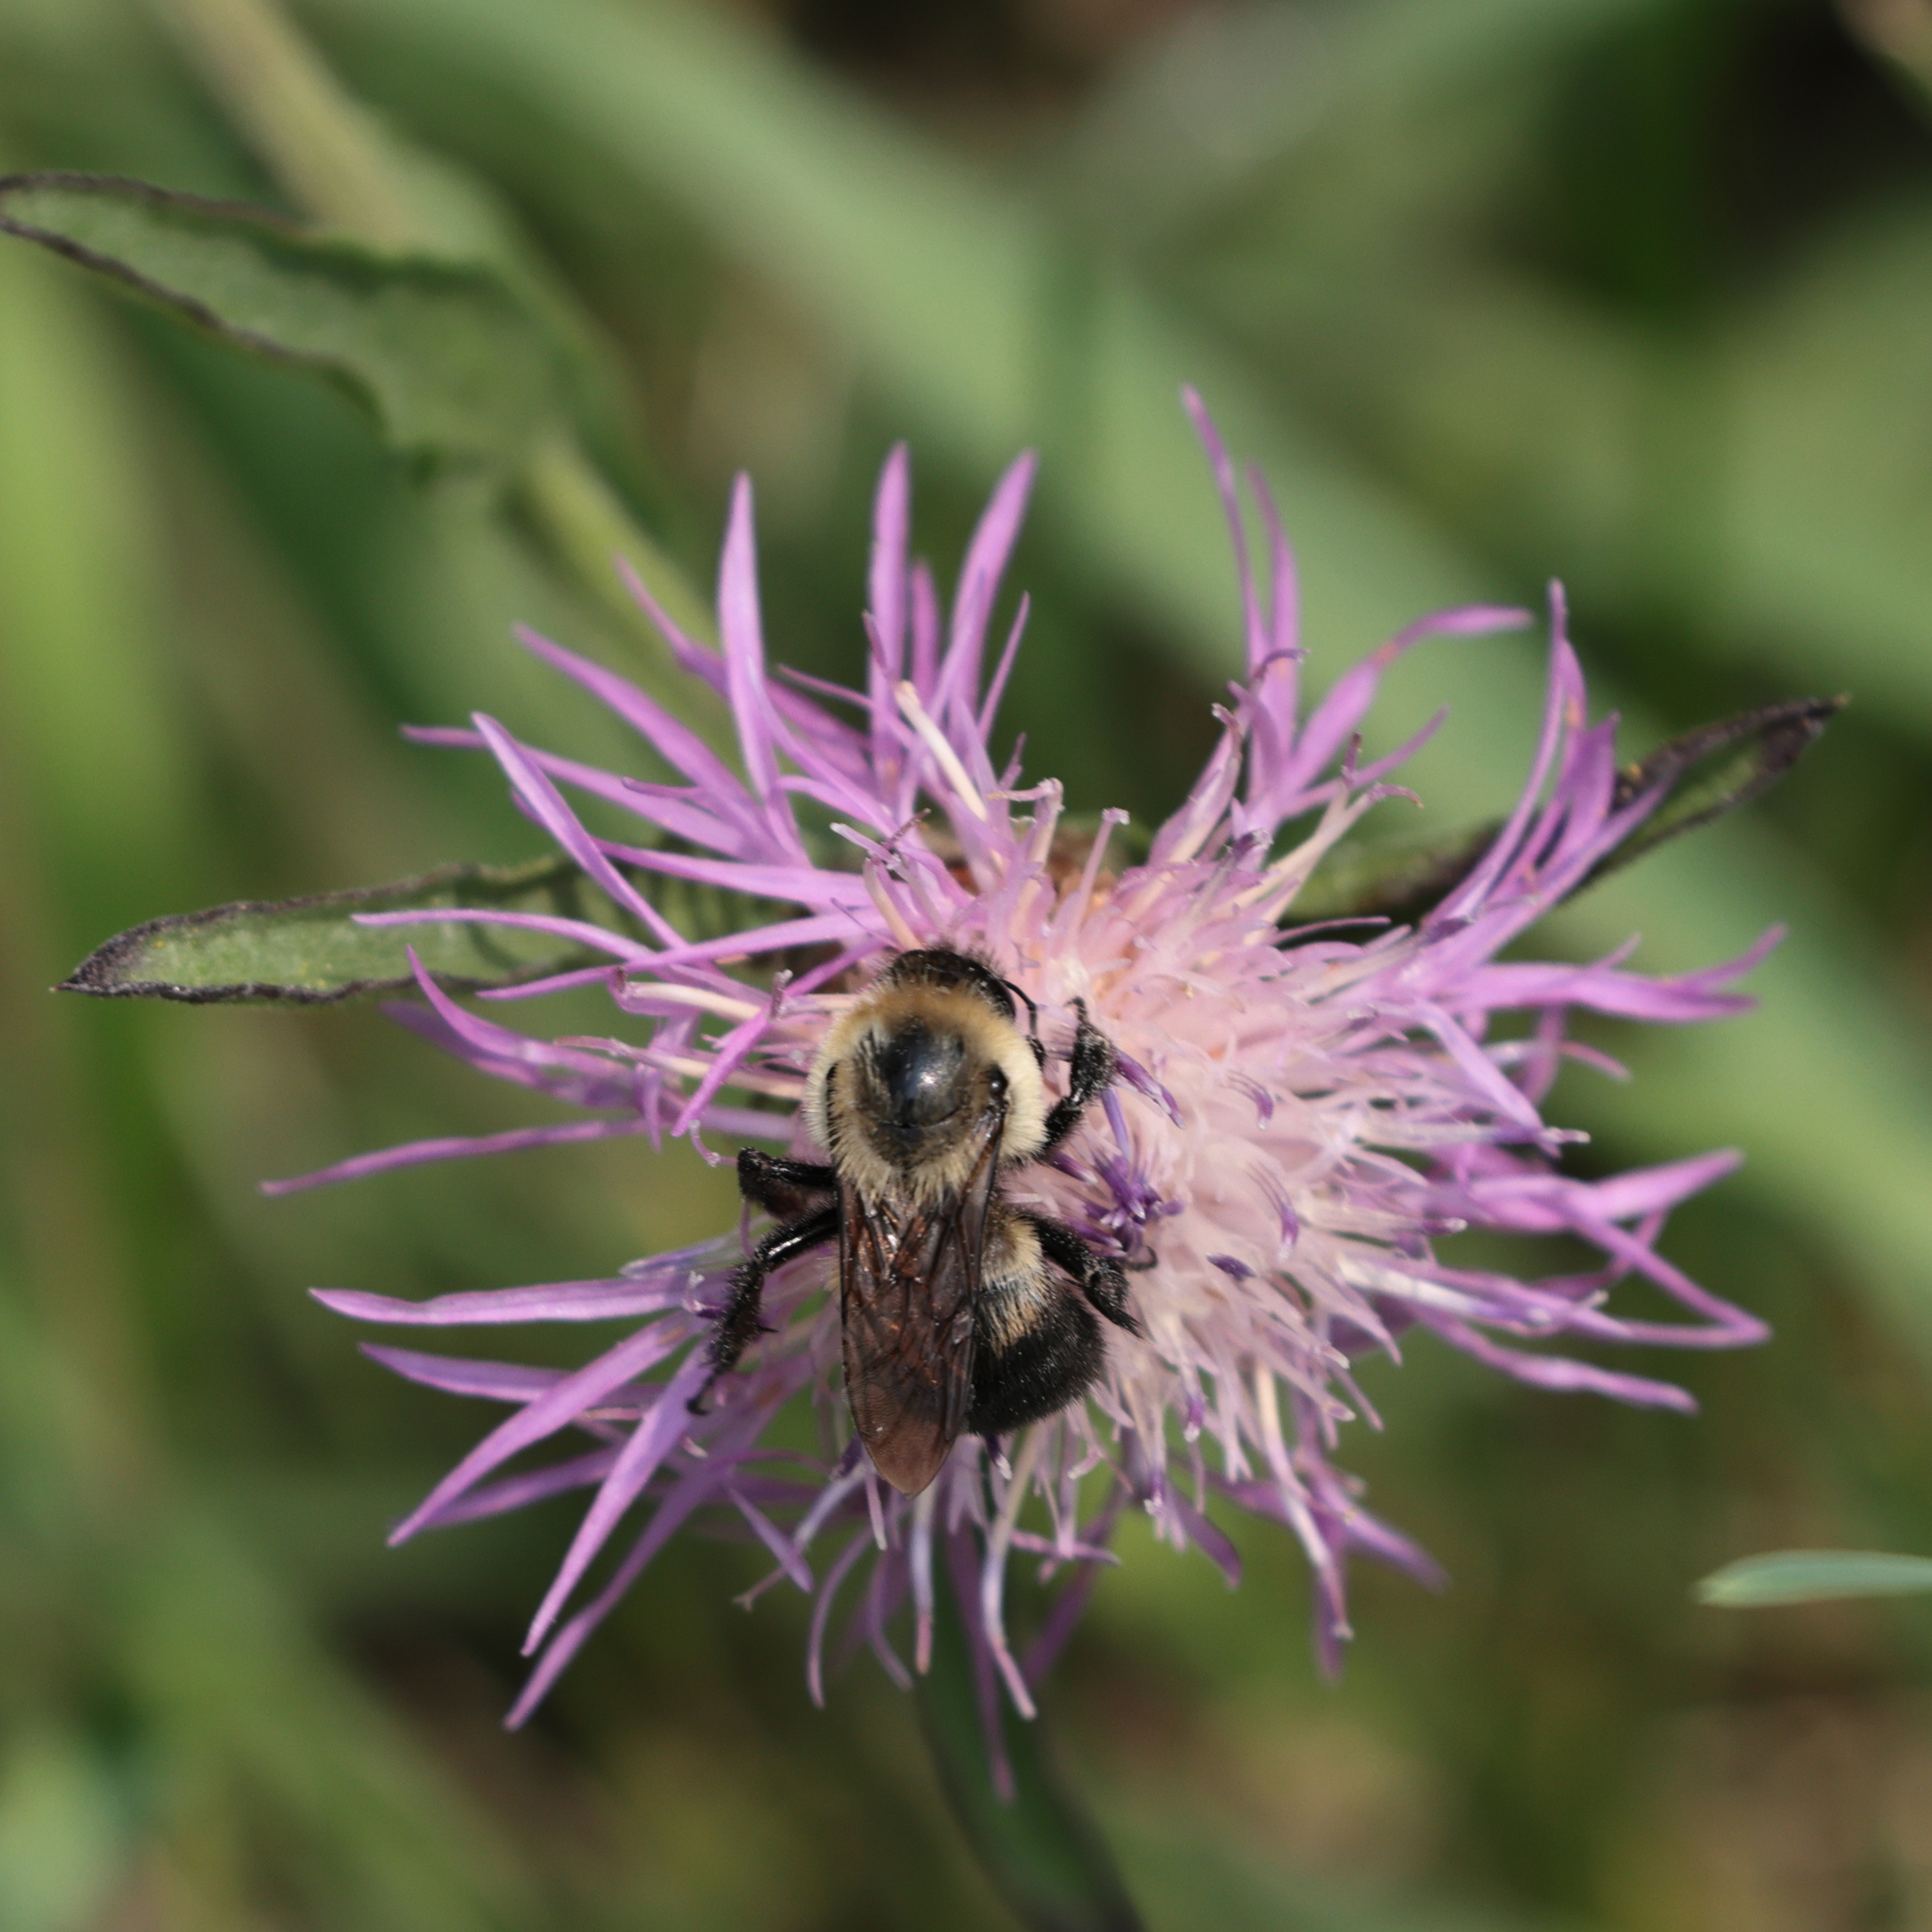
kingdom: Animalia
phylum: Arthropoda
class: Insecta
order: Hymenoptera
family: Apidae
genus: Bombus
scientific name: Bombus griseocollis
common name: Brown-belted bumble bee
